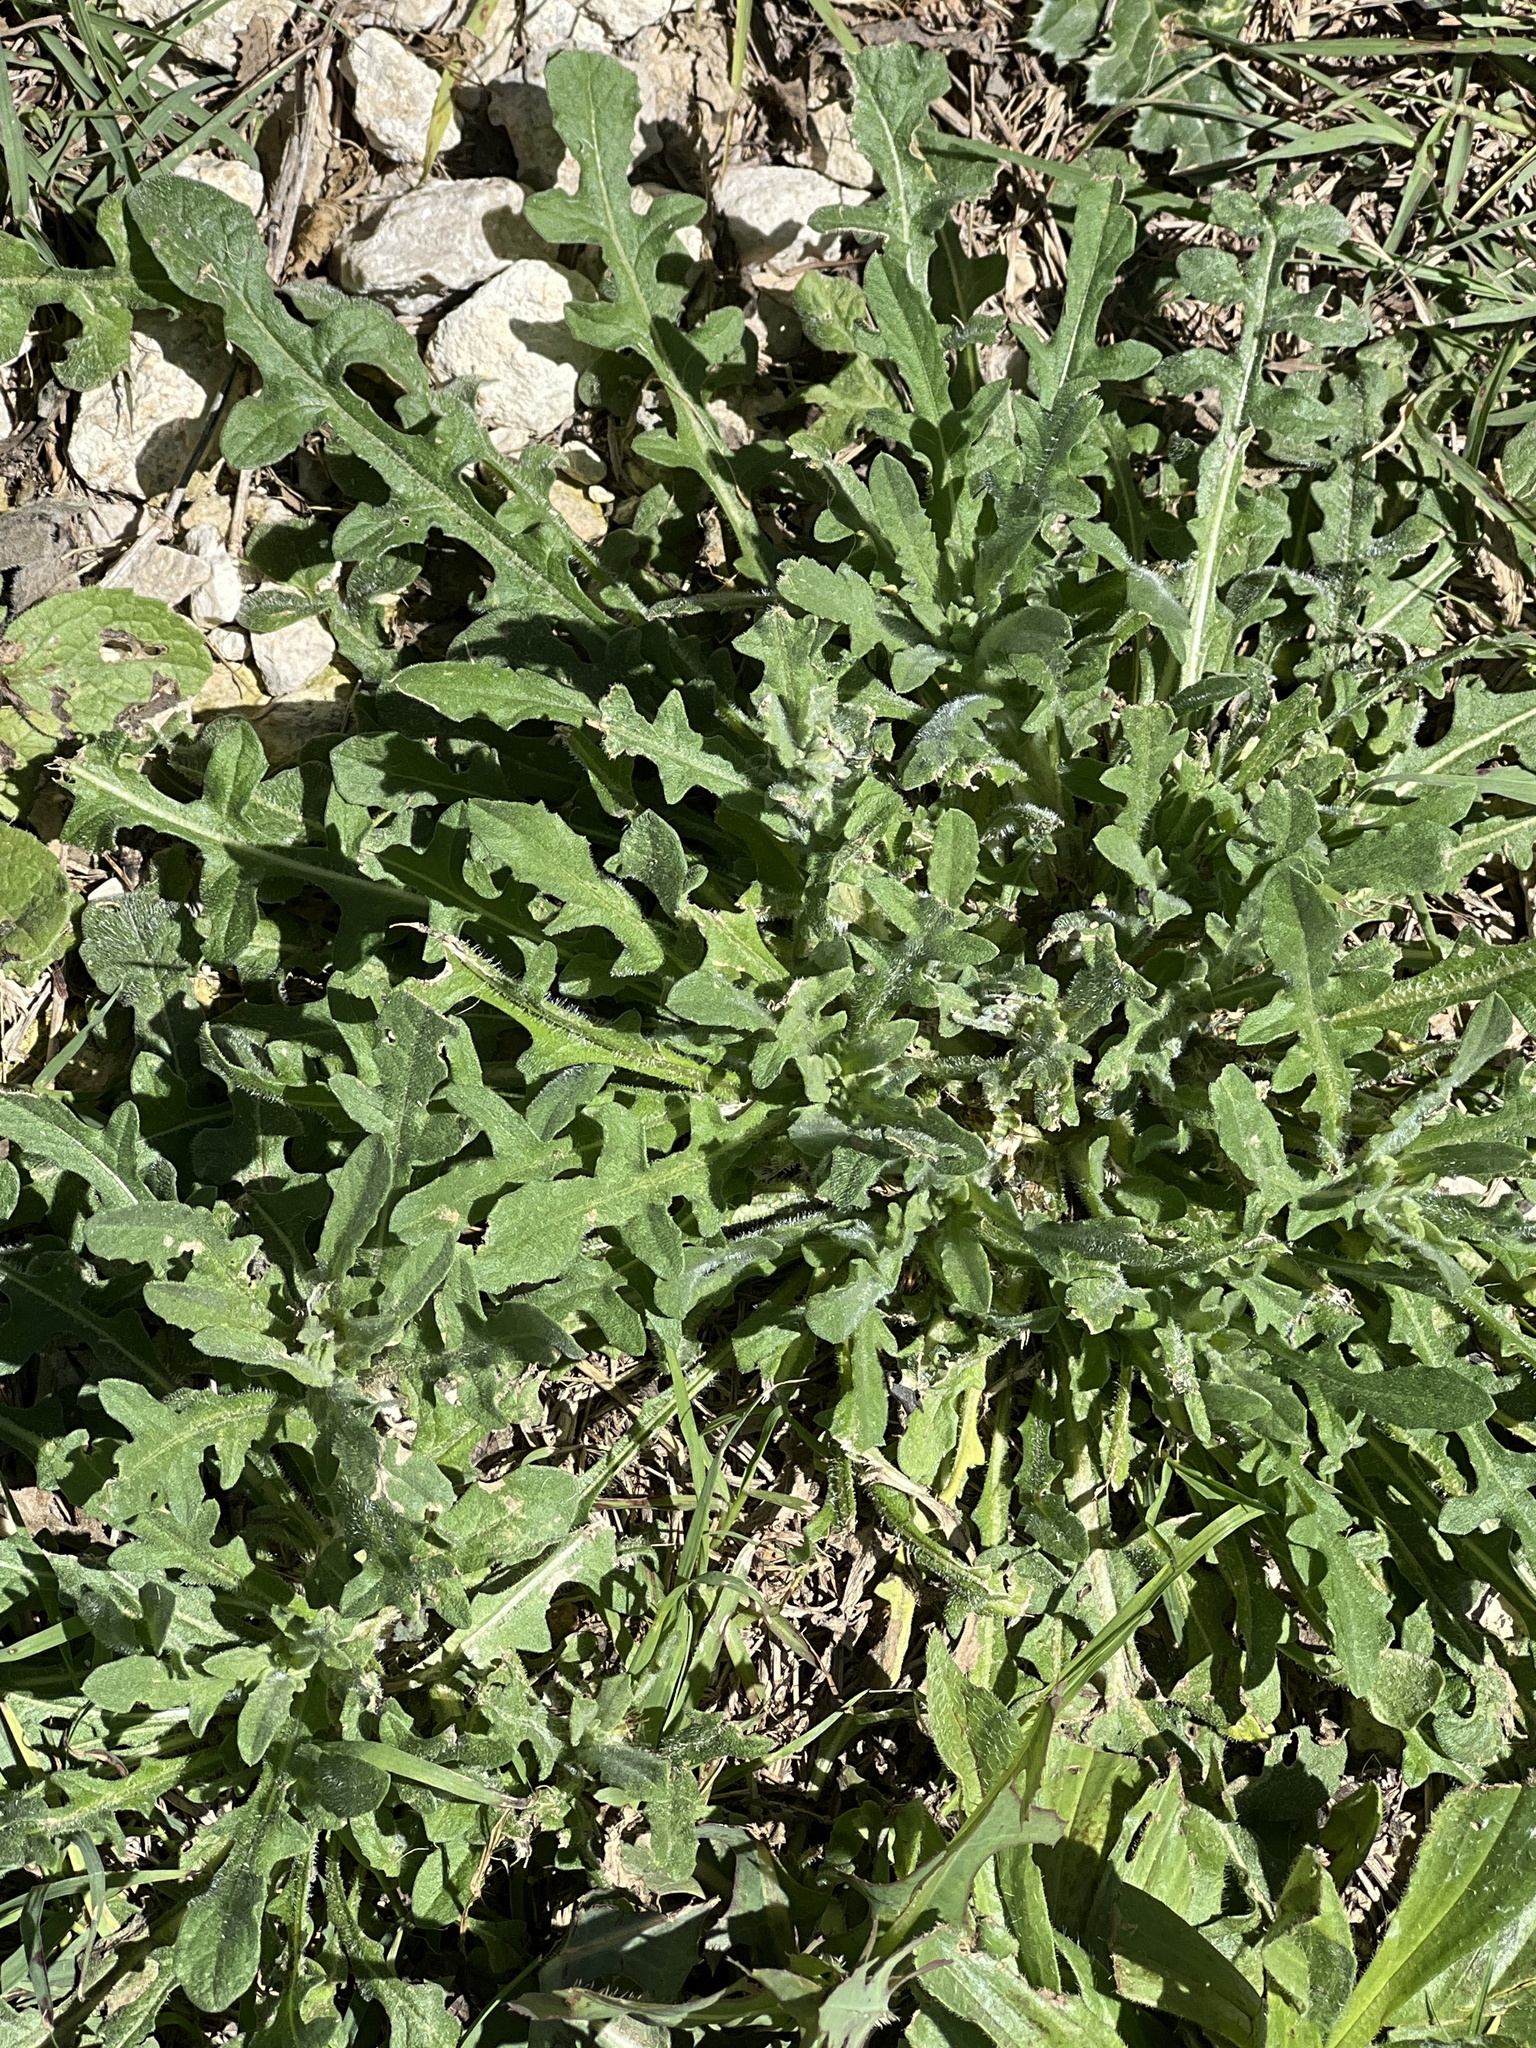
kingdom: Plantae
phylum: Tracheophyta
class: Magnoliopsida
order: Asterales
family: Asteraceae
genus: Centaurea
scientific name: Centaurea melitensis
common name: Maltese star-thistle
